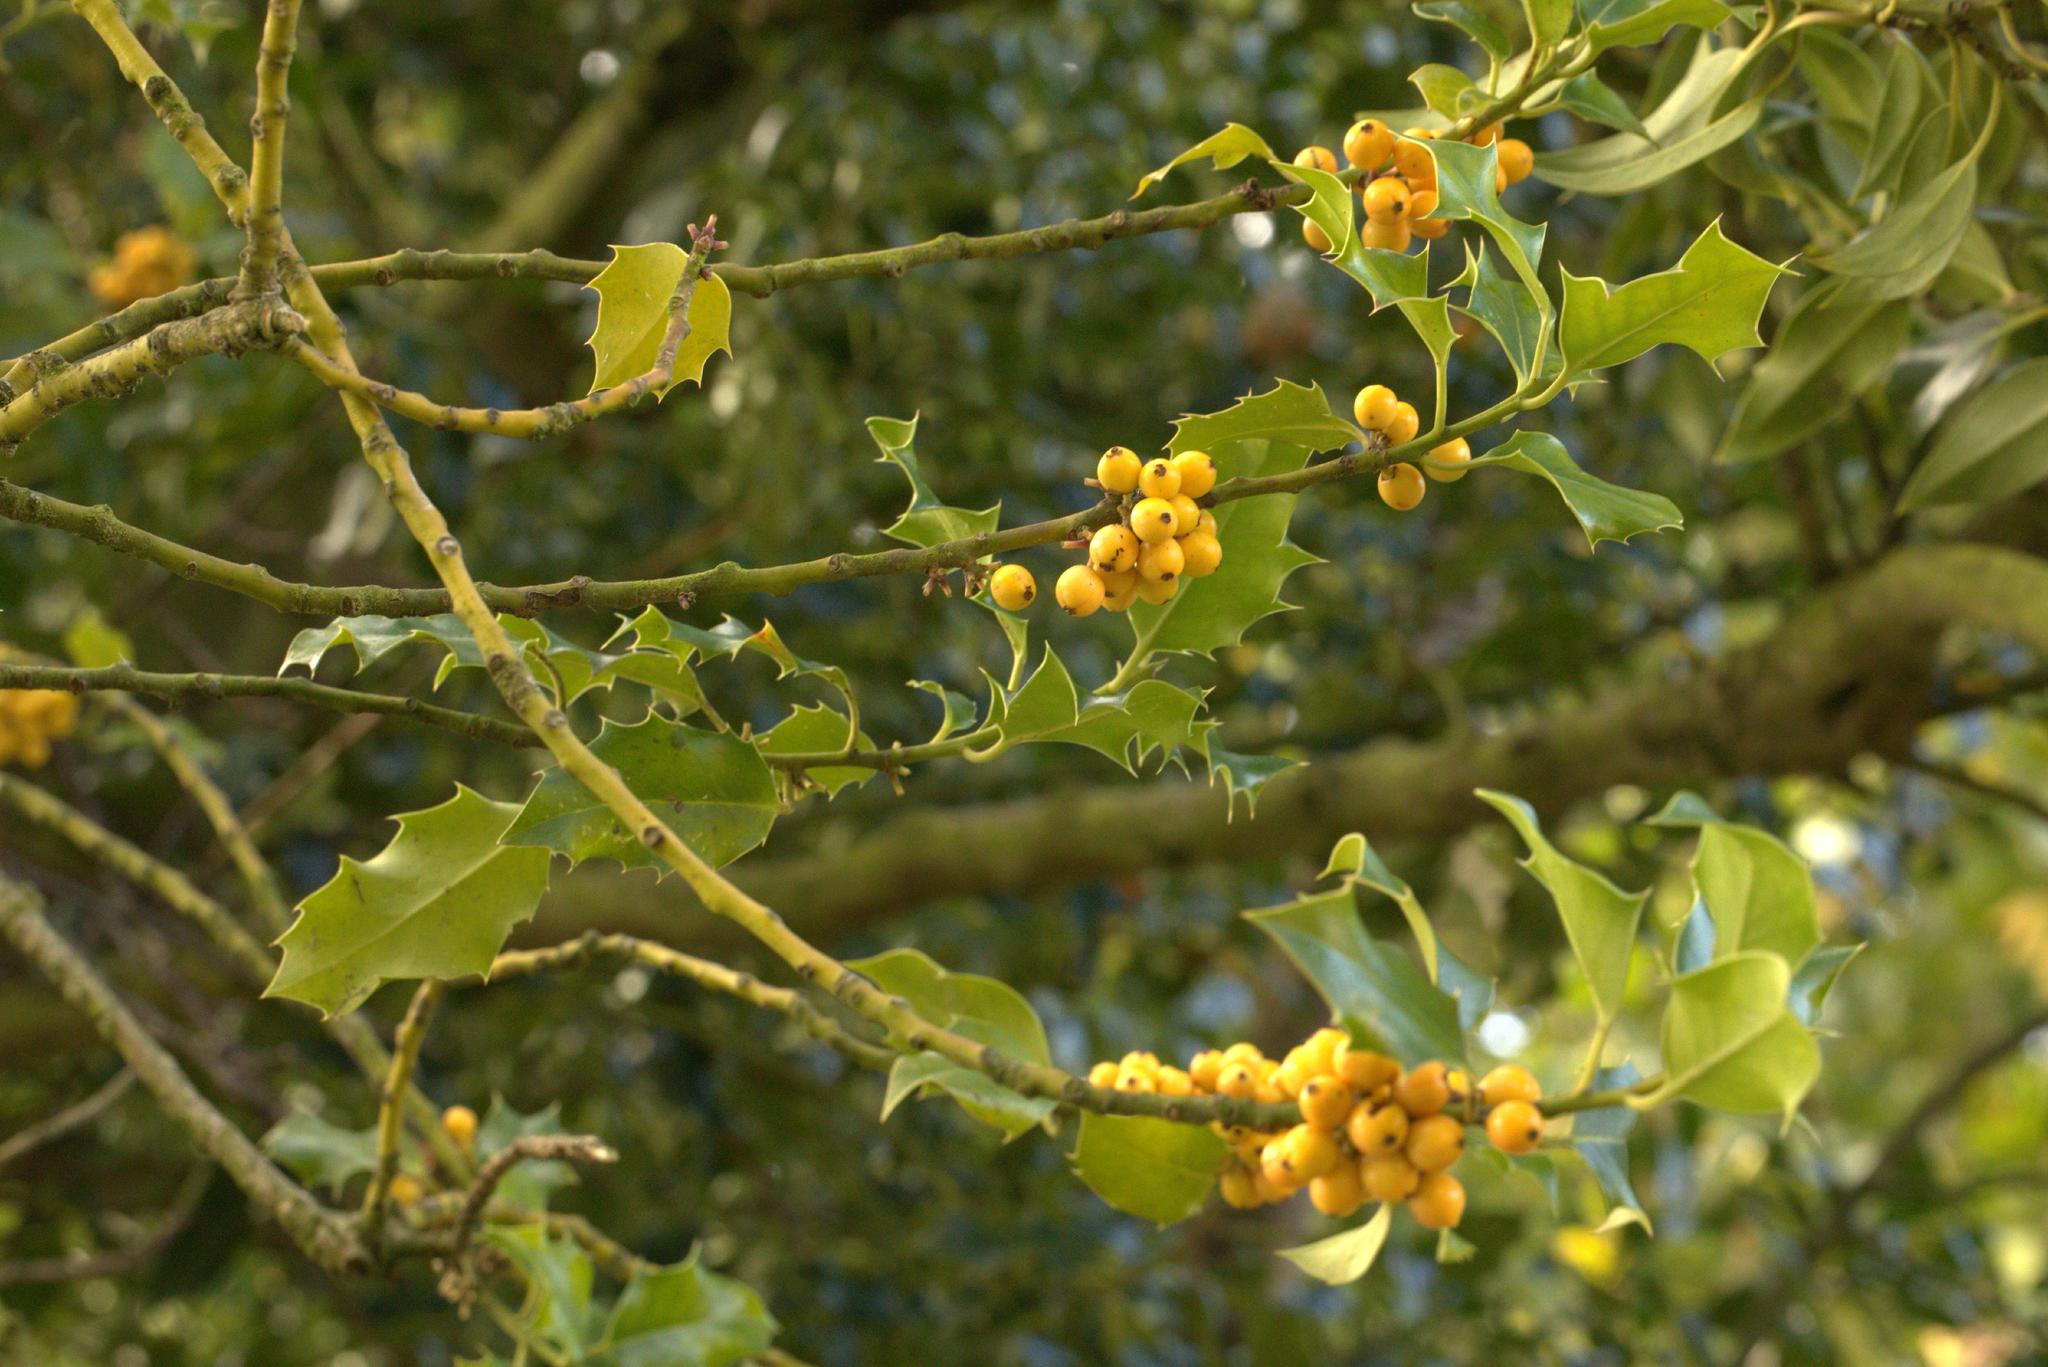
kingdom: Plantae
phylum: Tracheophyta
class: Magnoliopsida
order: Aquifoliales
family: Aquifoliaceae
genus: Ilex
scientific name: Ilex aquifolium
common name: English holly
